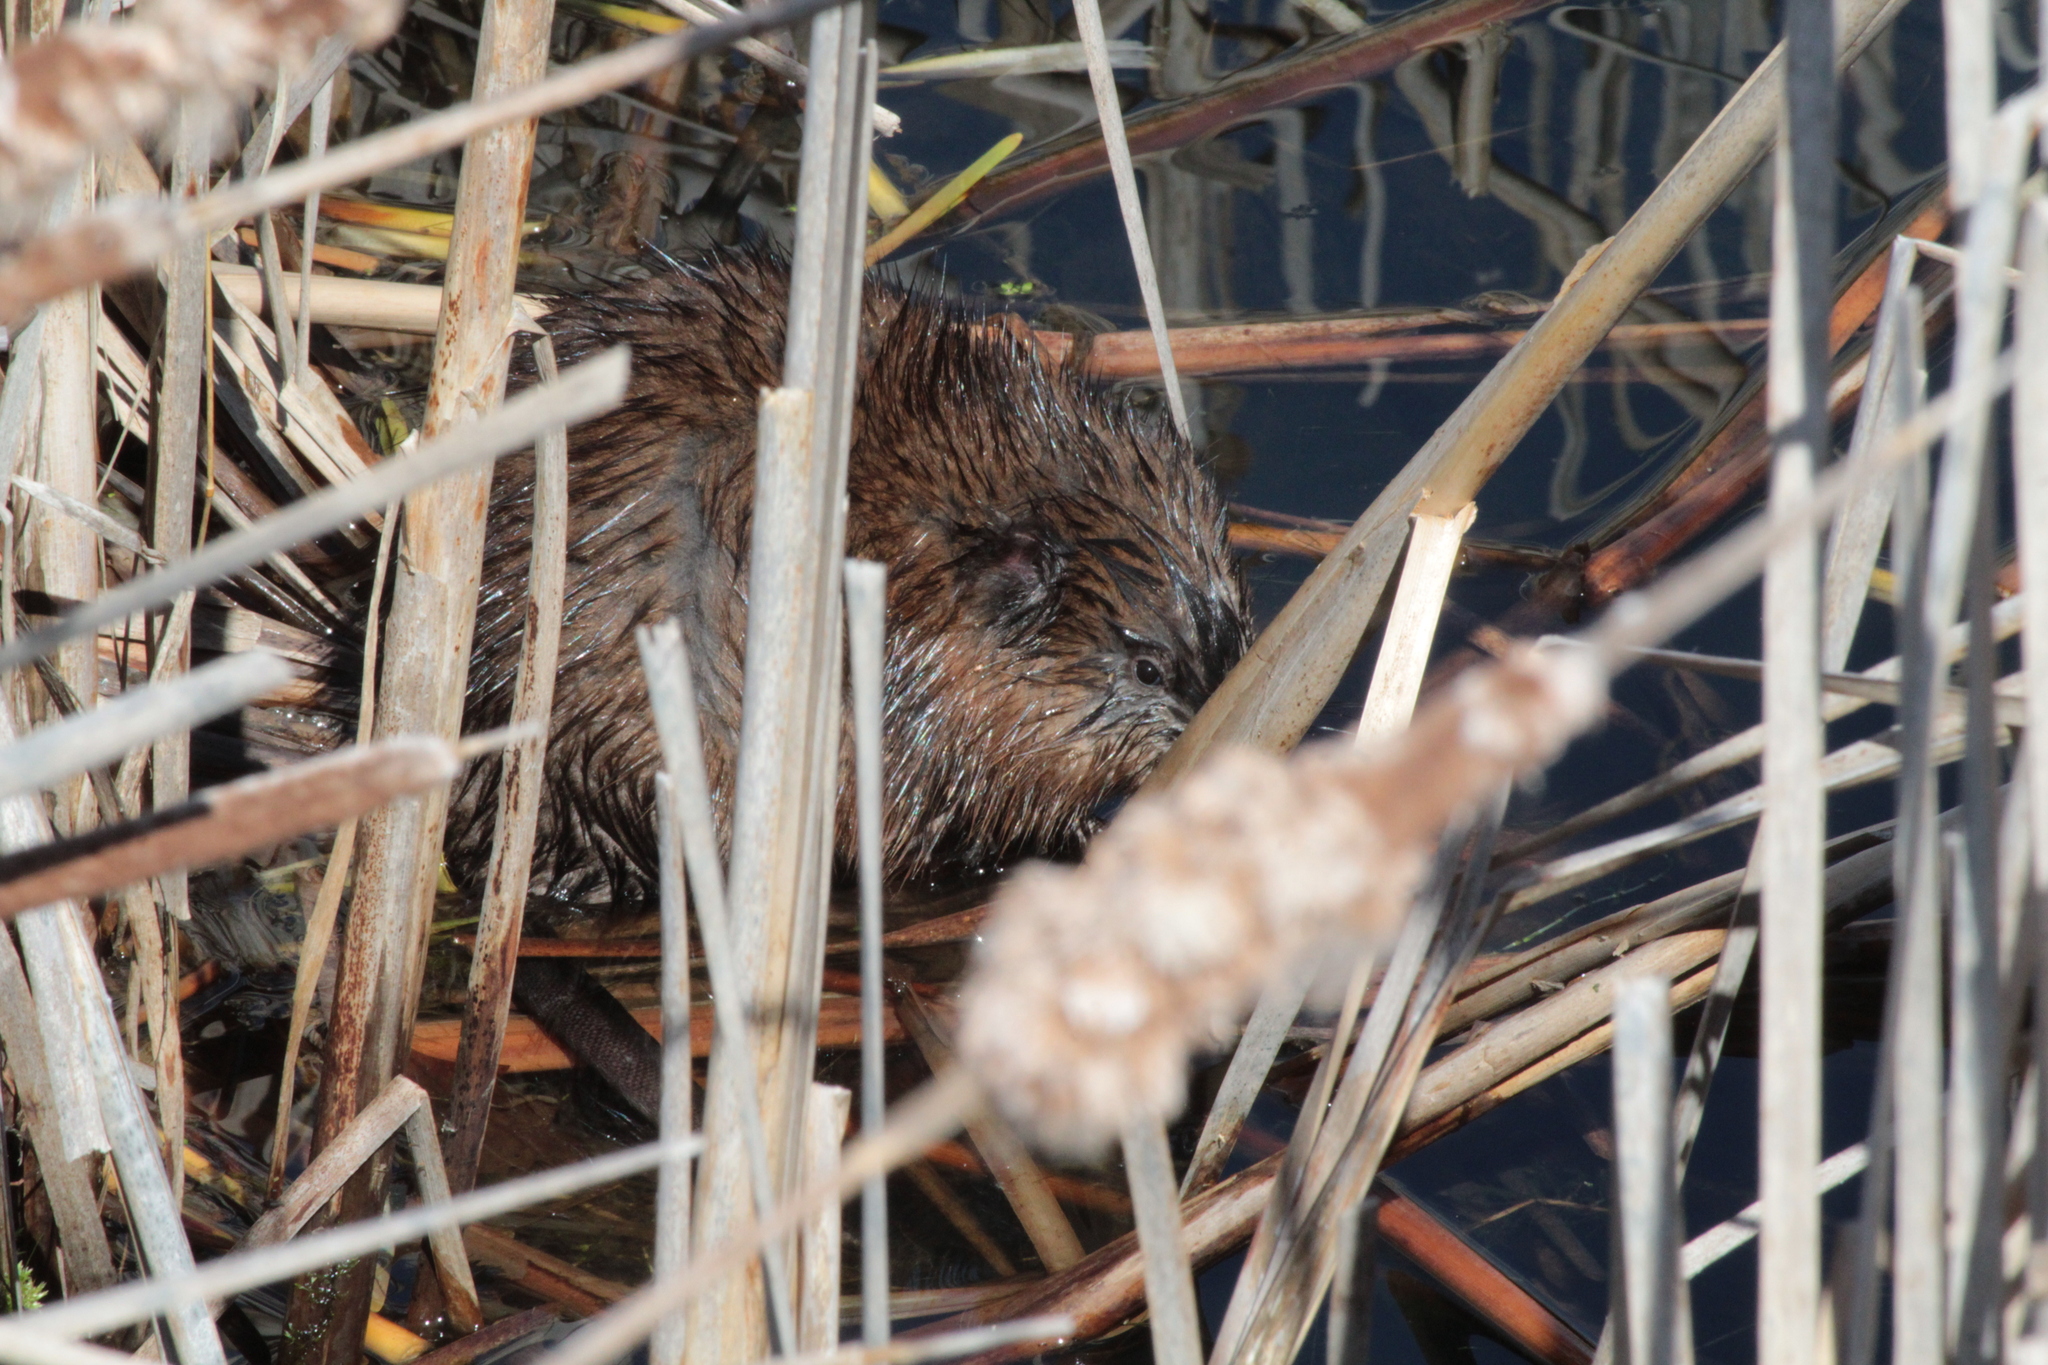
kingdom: Animalia
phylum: Chordata
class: Mammalia
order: Rodentia
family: Cricetidae
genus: Ondatra
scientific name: Ondatra zibethicus
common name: Muskrat
